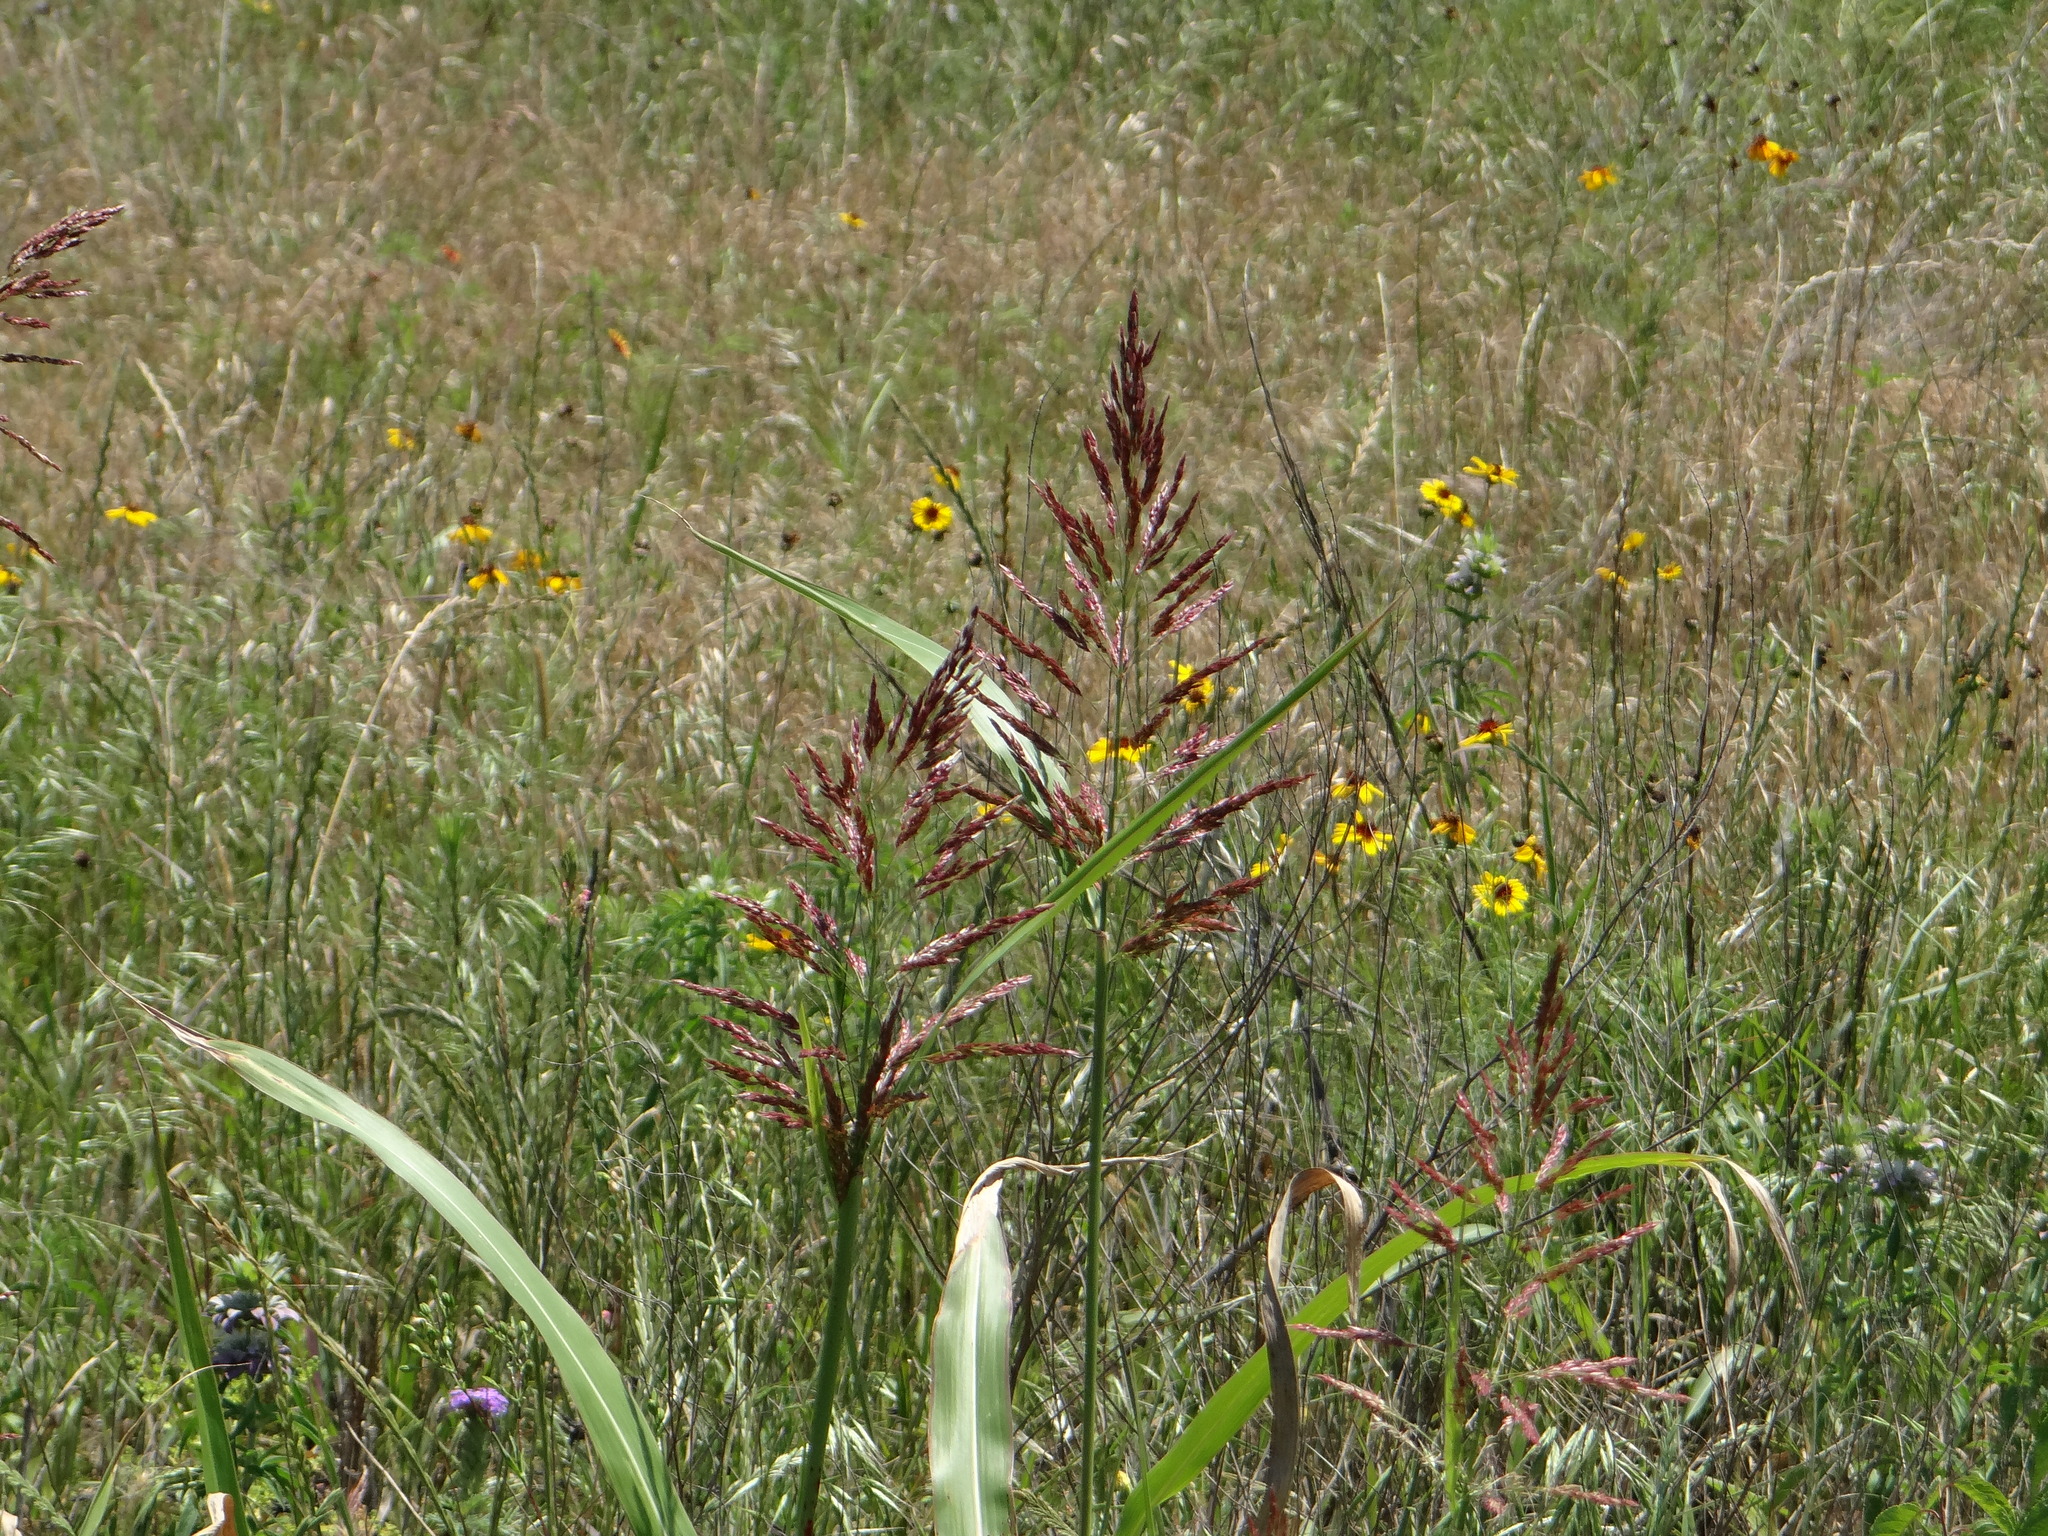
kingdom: Plantae
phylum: Tracheophyta
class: Liliopsida
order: Poales
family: Poaceae
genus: Sorghum
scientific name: Sorghum halepense
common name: Johnson-grass
